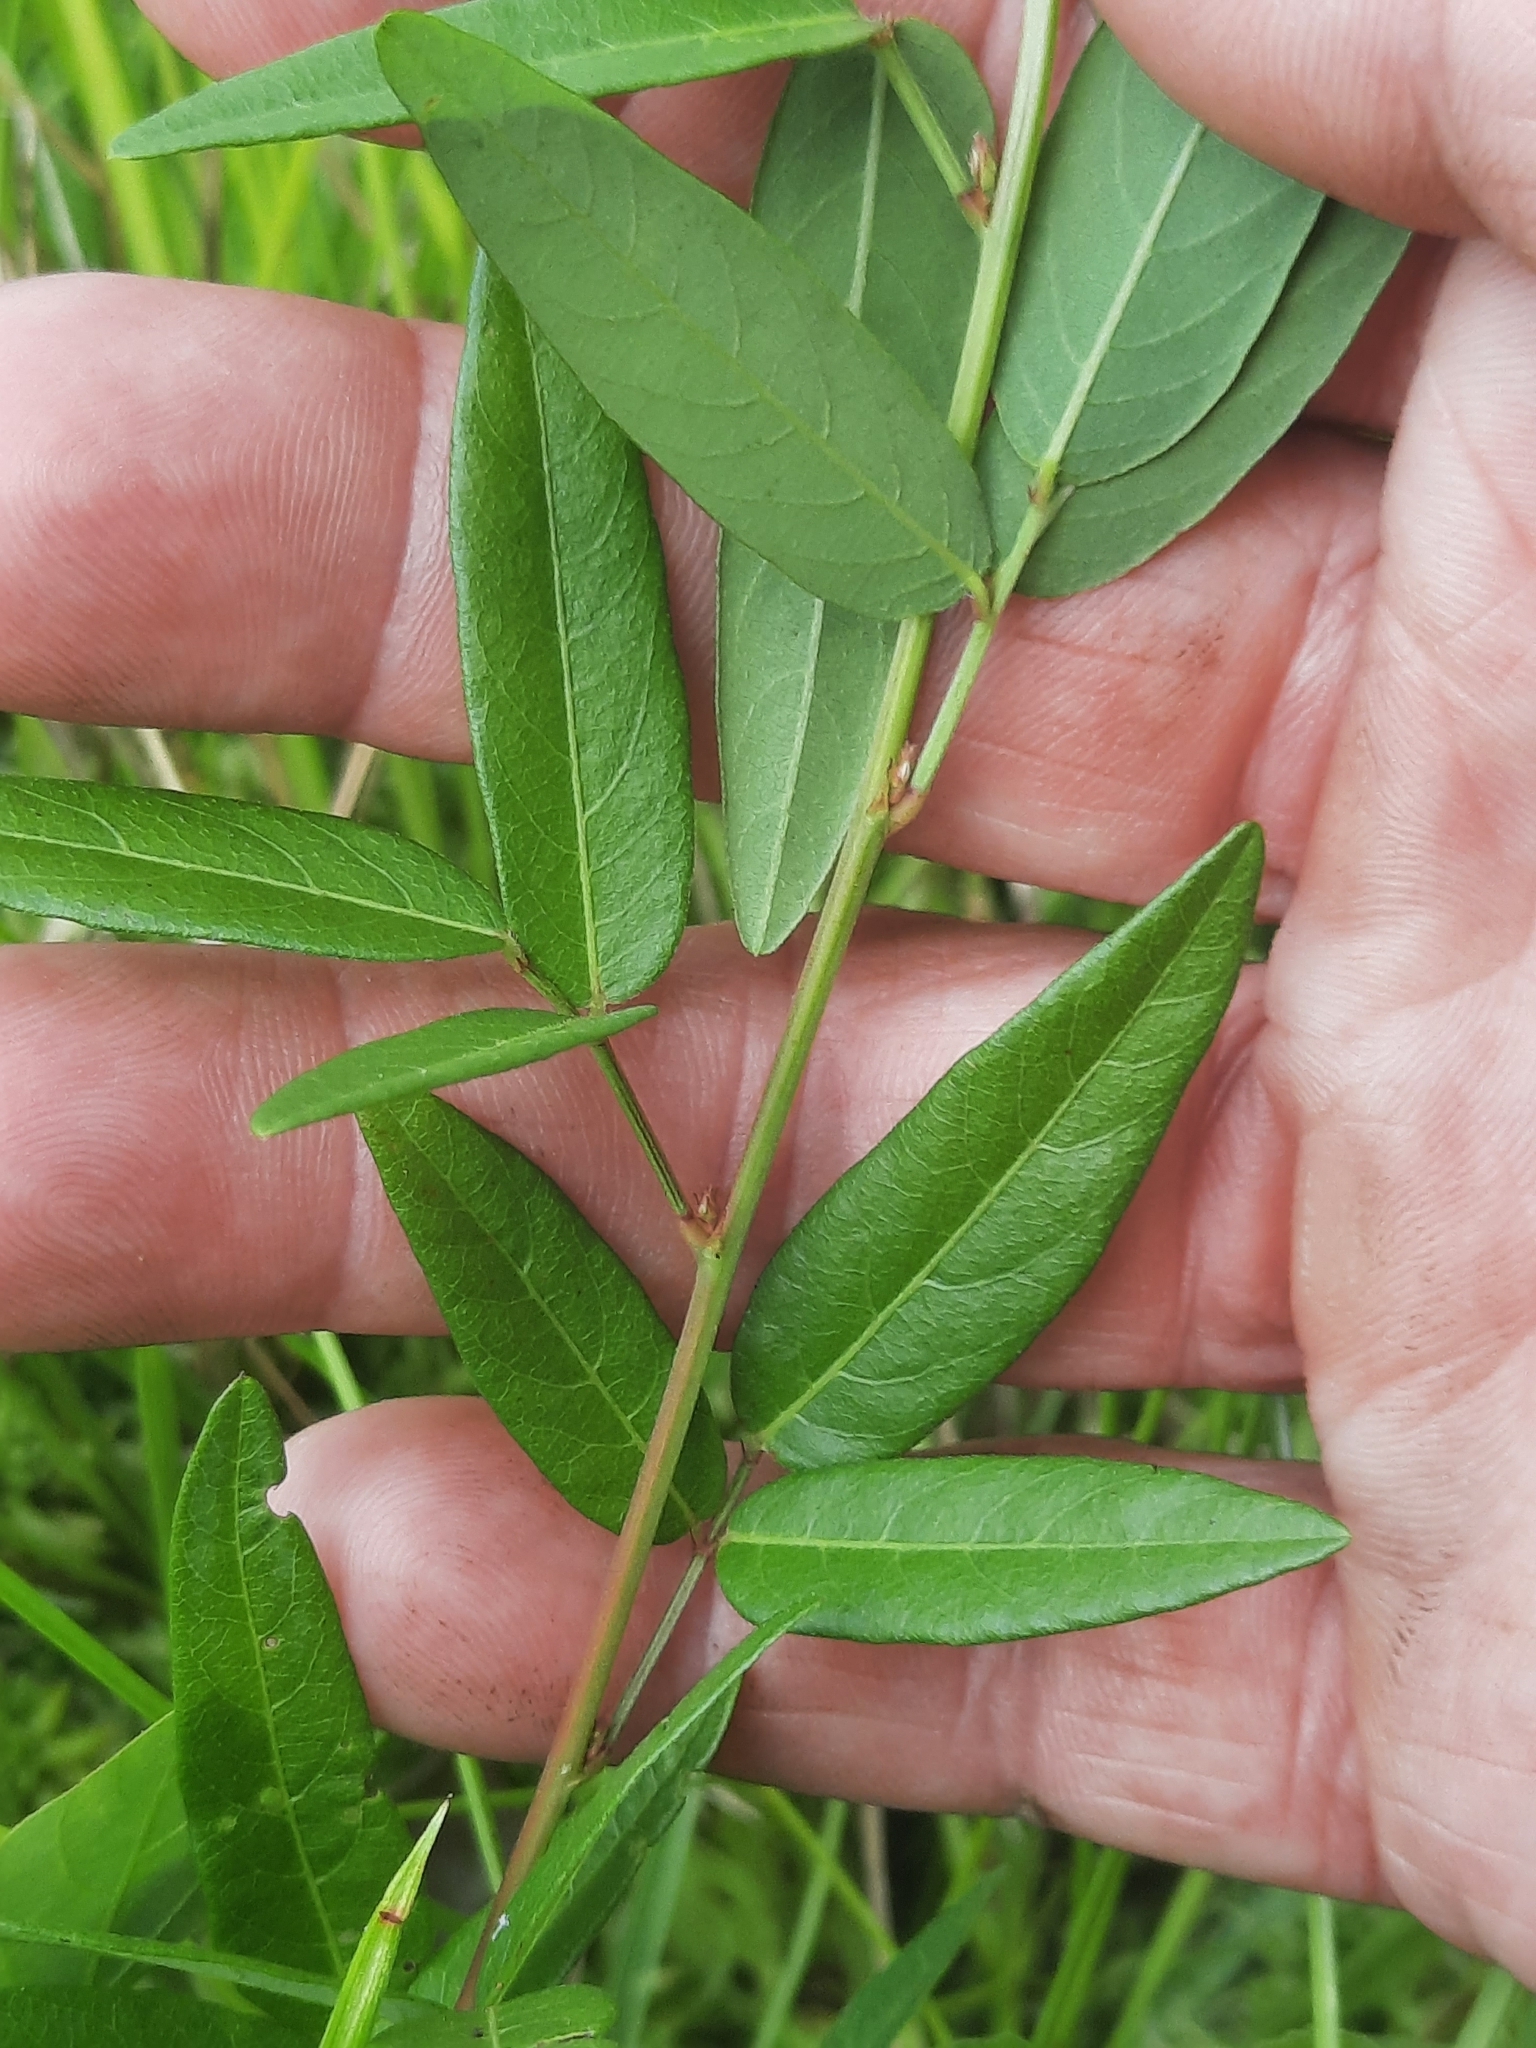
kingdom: Plantae
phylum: Tracheophyta
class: Magnoliopsida
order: Fabales
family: Fabaceae
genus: Desmodium
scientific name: Desmodium paniculatum
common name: Panicled tick-clover
